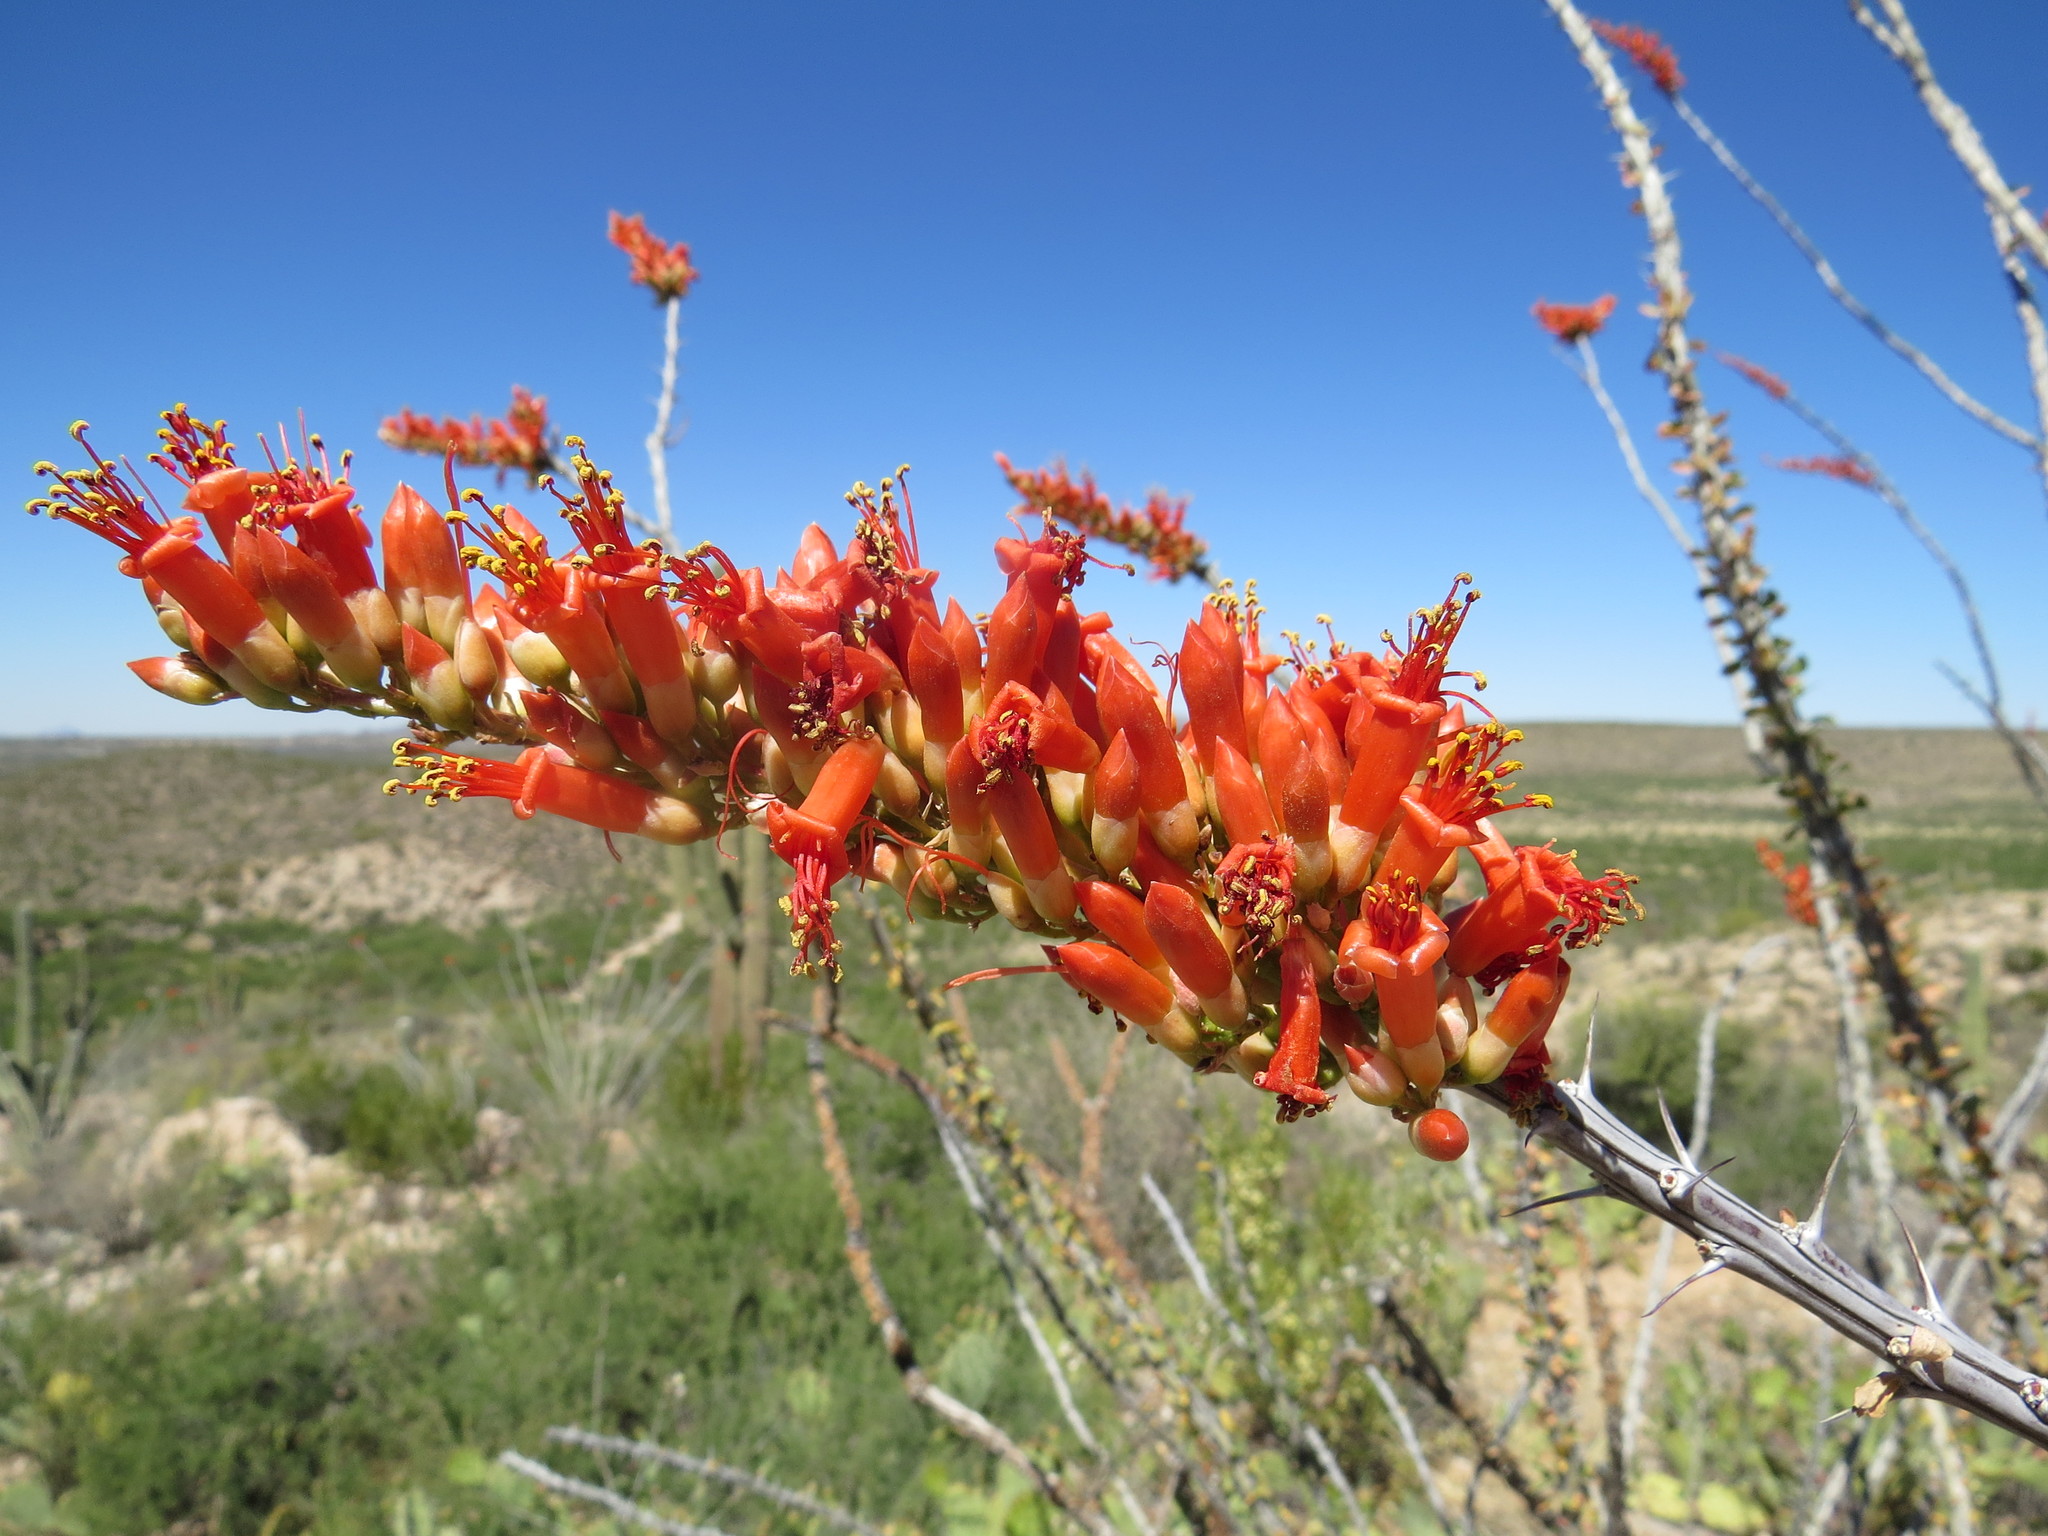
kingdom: Plantae
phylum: Tracheophyta
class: Magnoliopsida
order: Ericales
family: Fouquieriaceae
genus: Fouquieria
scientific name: Fouquieria splendens
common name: Vine-cactus
